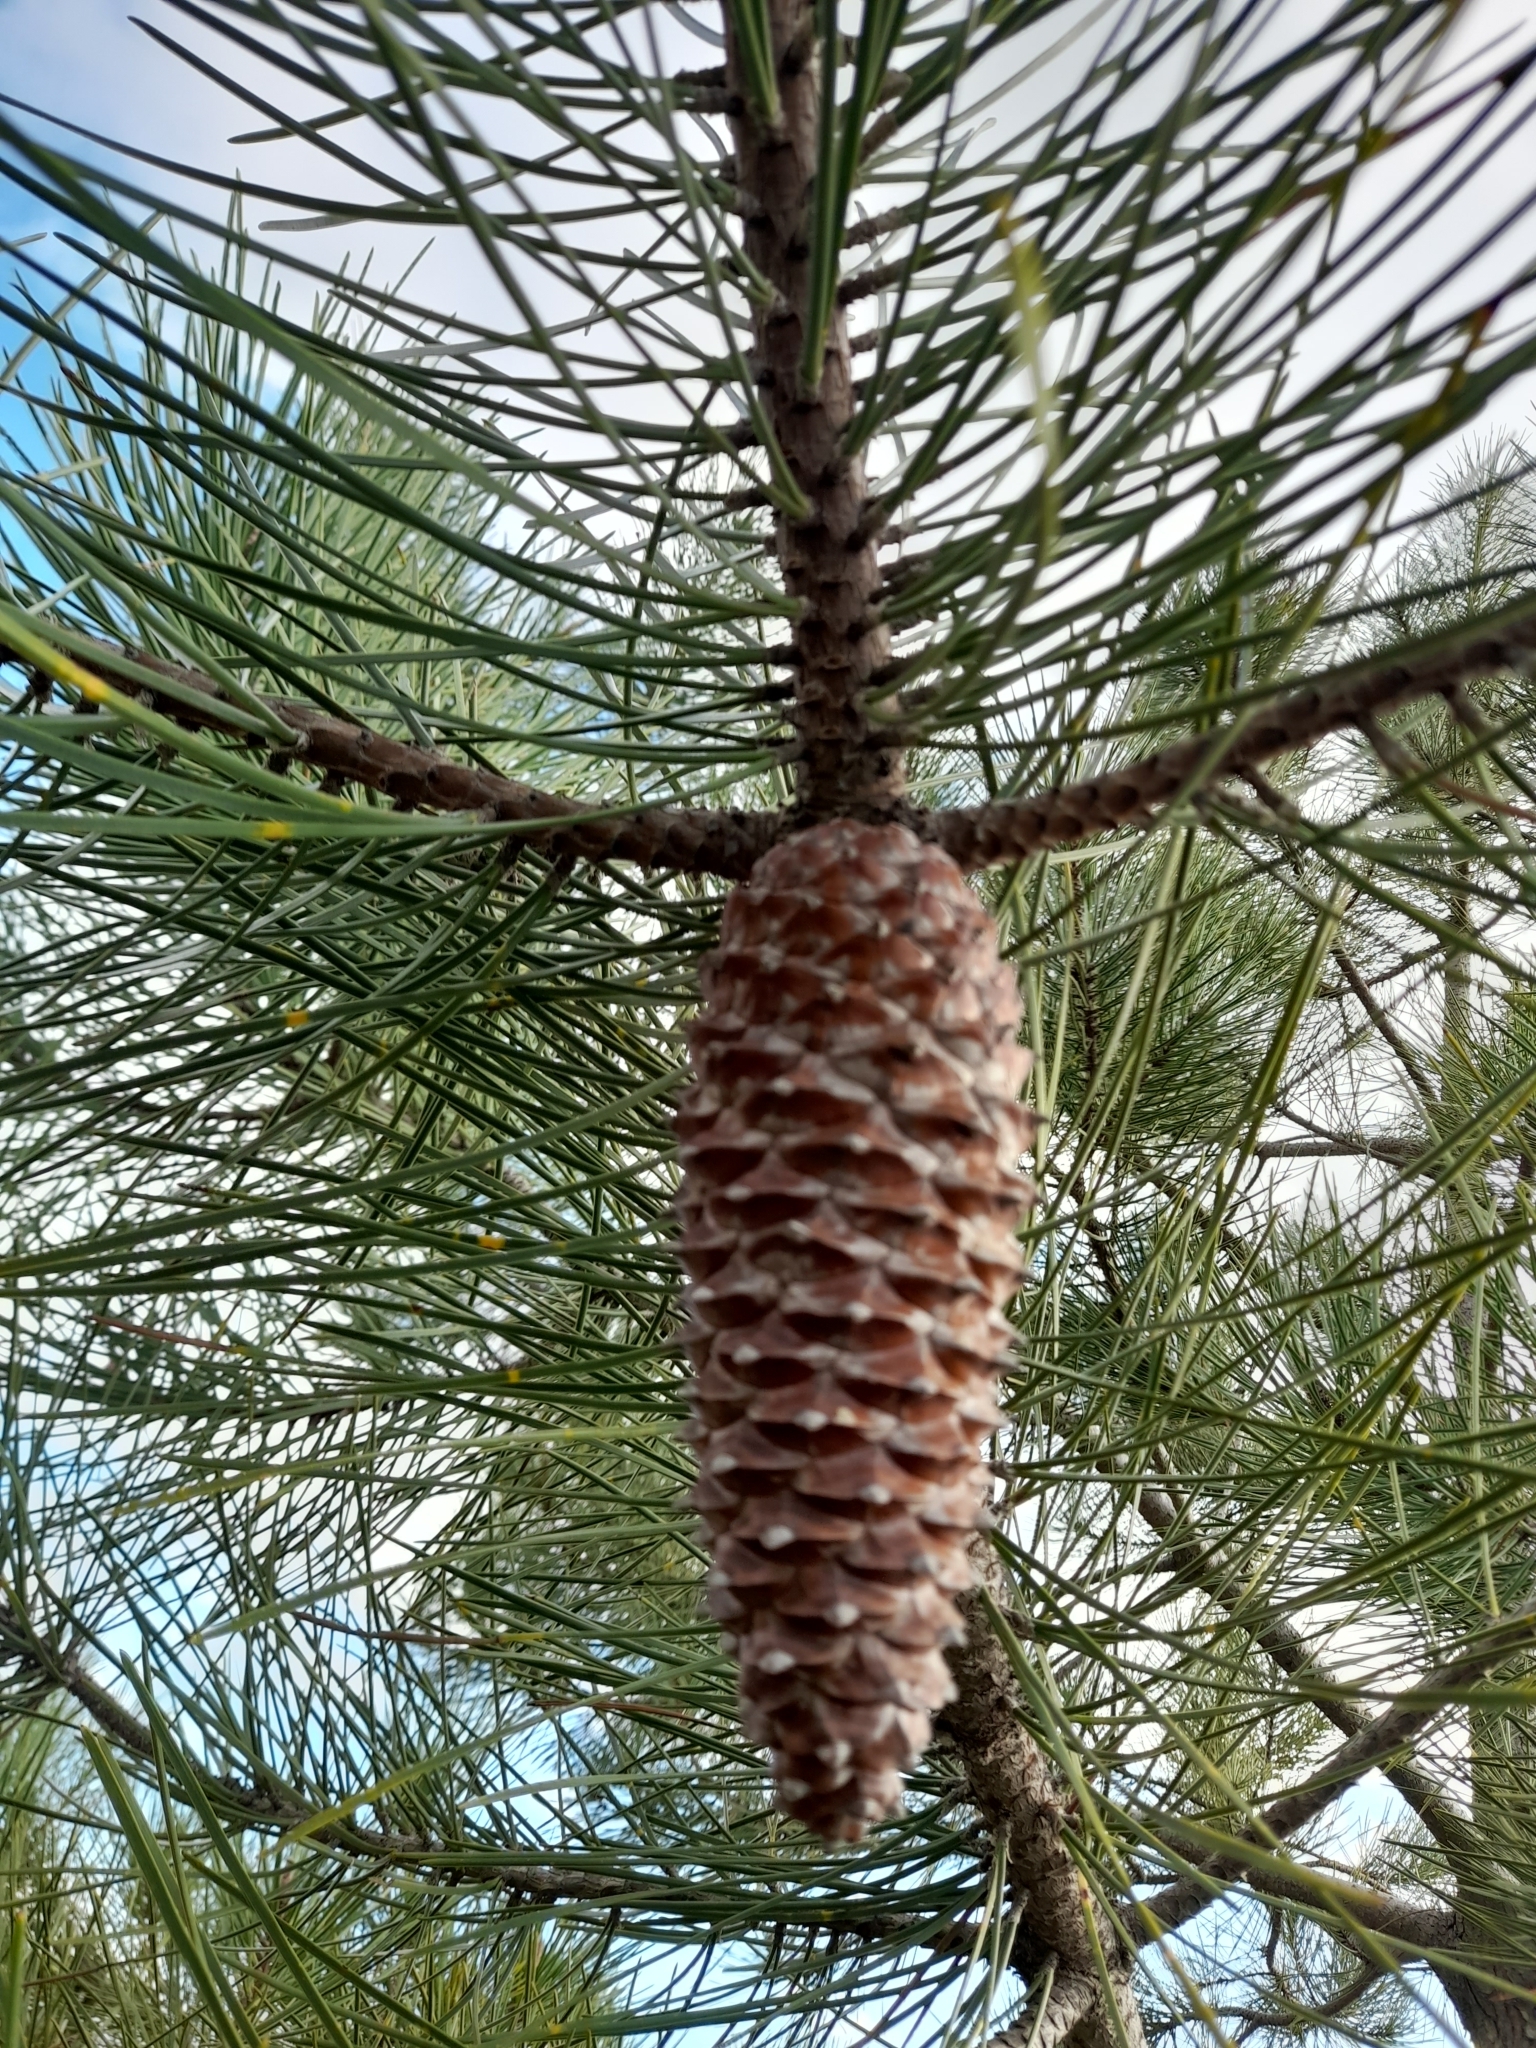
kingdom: Plantae
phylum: Tracheophyta
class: Pinopsida
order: Pinales
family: Pinaceae
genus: Pinus
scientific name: Pinus pinaster
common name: Maritime pine
